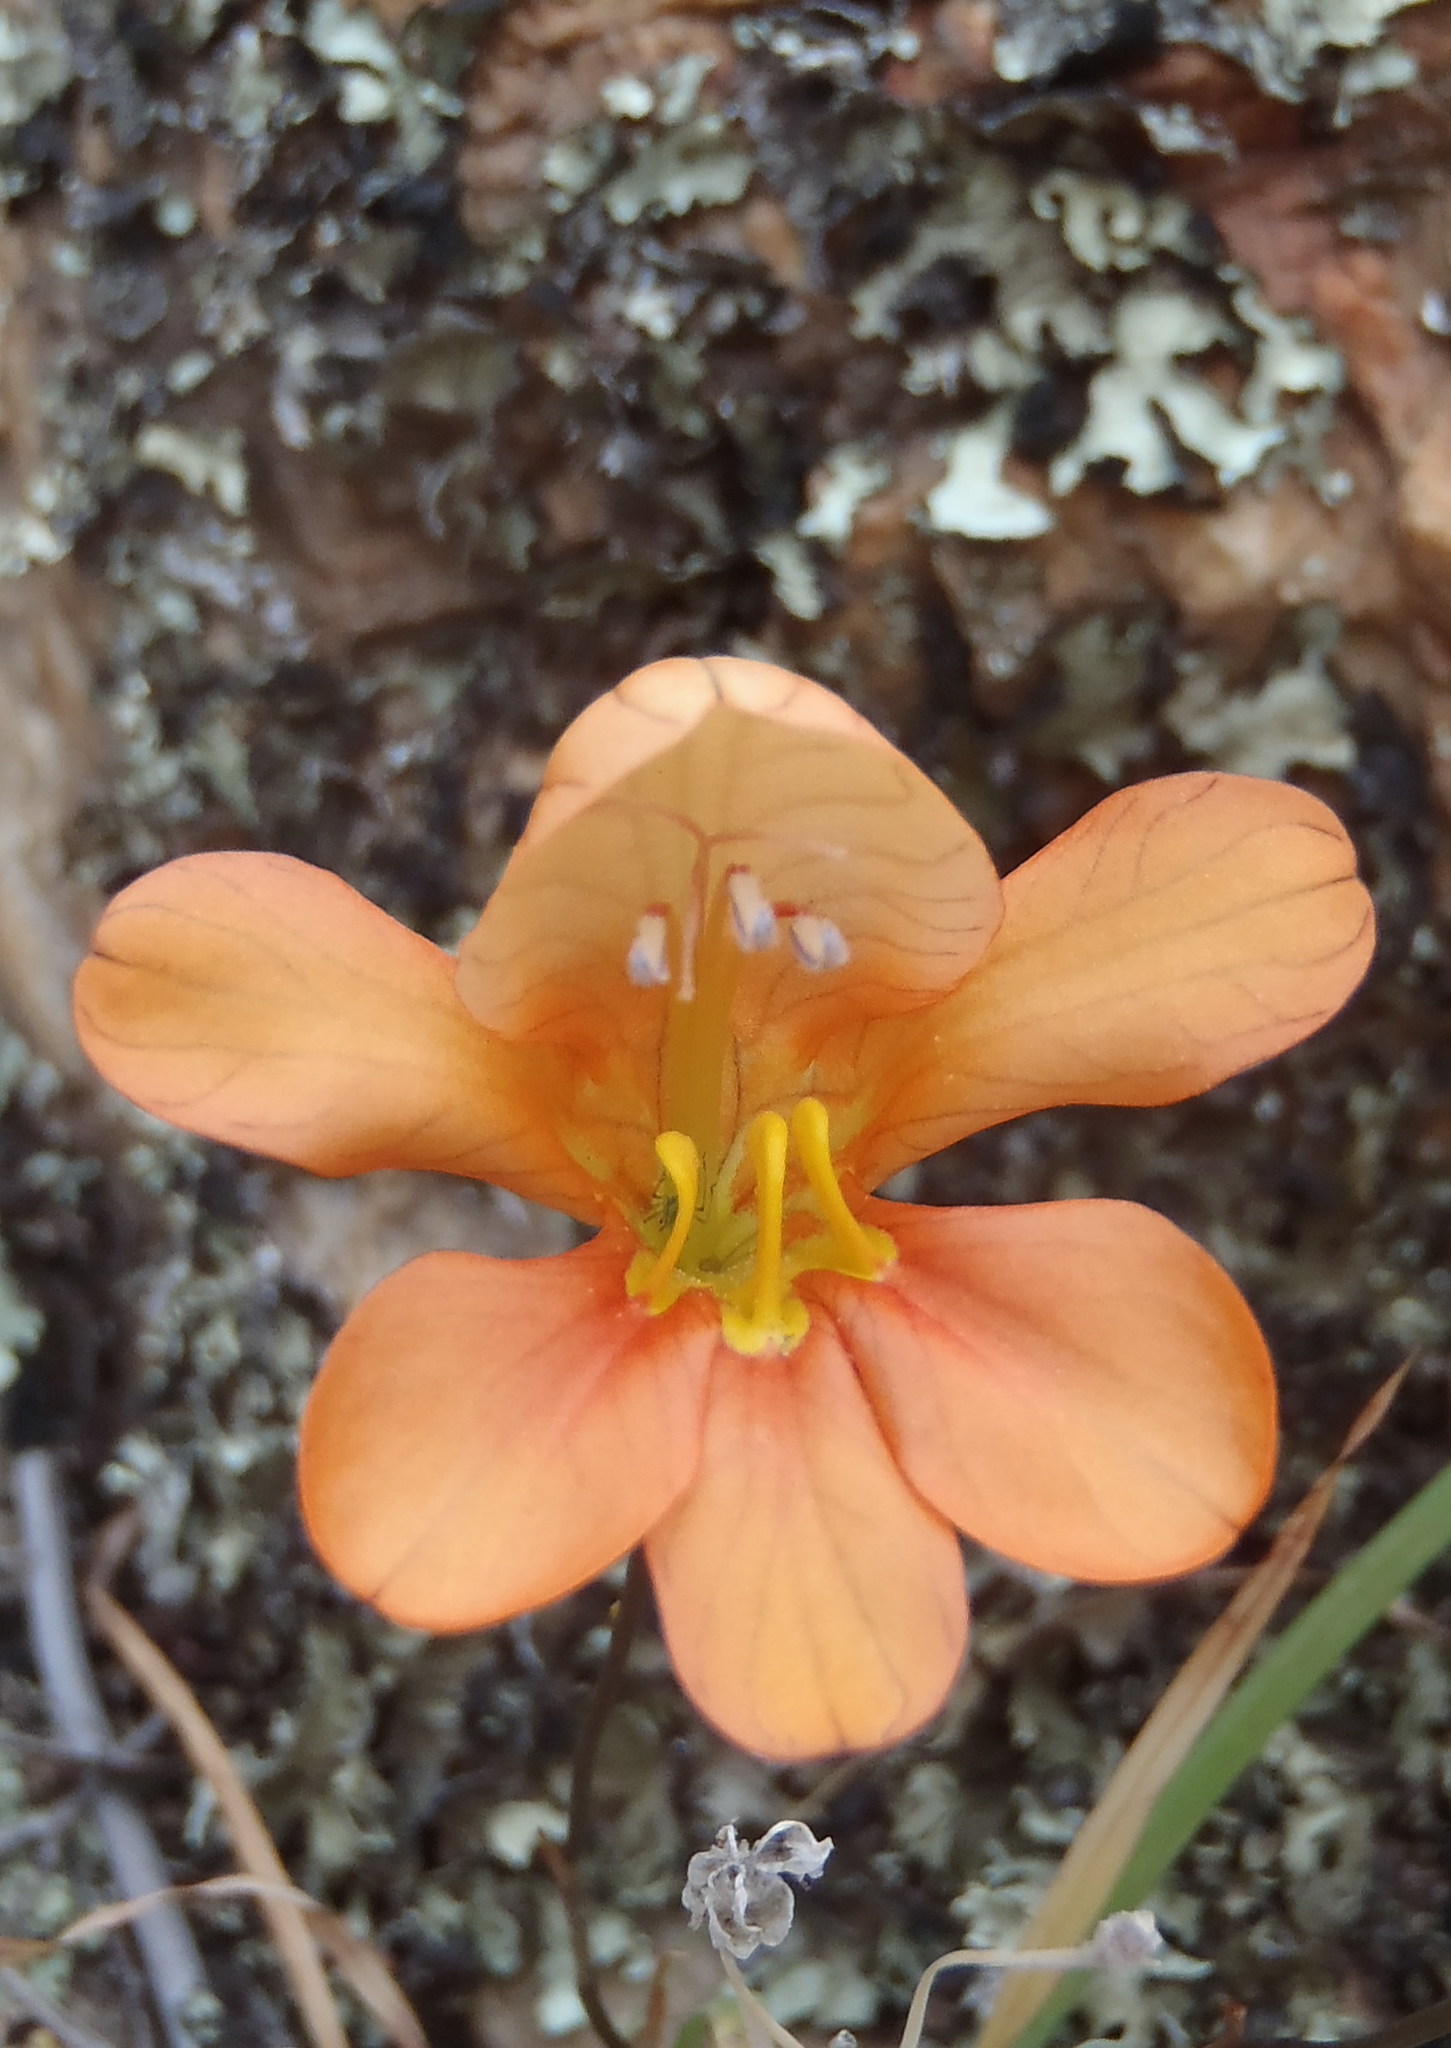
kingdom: Plantae
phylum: Tracheophyta
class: Liliopsida
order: Asparagales
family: Iridaceae
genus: Tritonia
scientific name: Tritonia parvula
